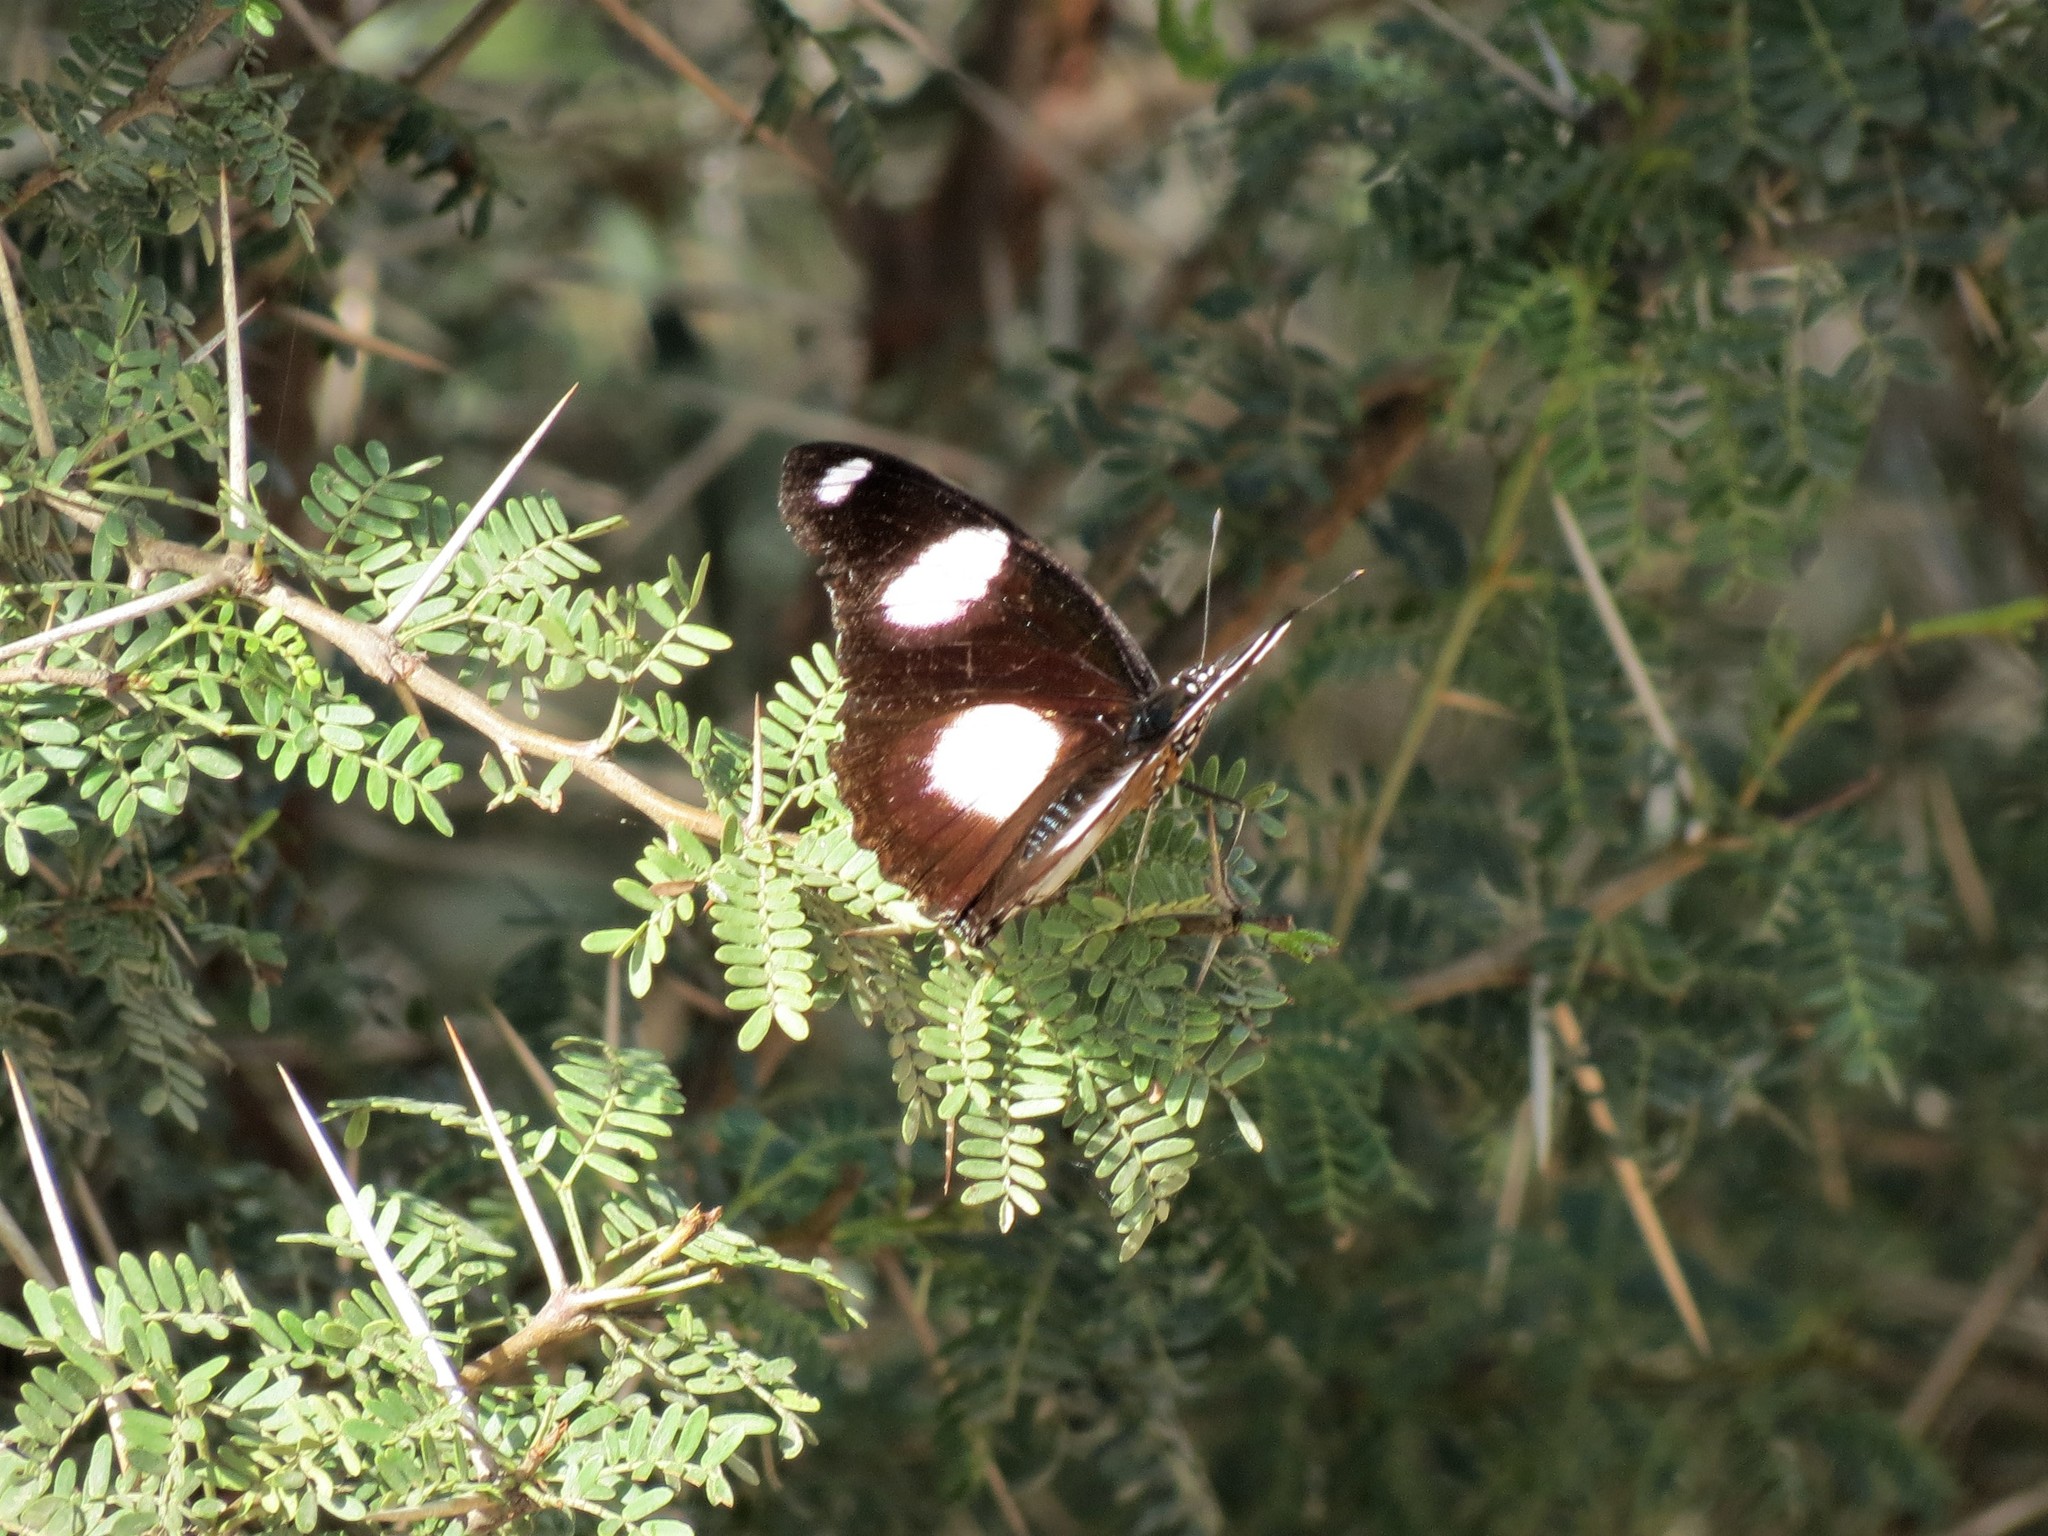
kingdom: Animalia
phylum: Arthropoda
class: Insecta
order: Lepidoptera
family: Nymphalidae
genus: Hypolimnas
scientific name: Hypolimnas misippus
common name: False plain tiger
